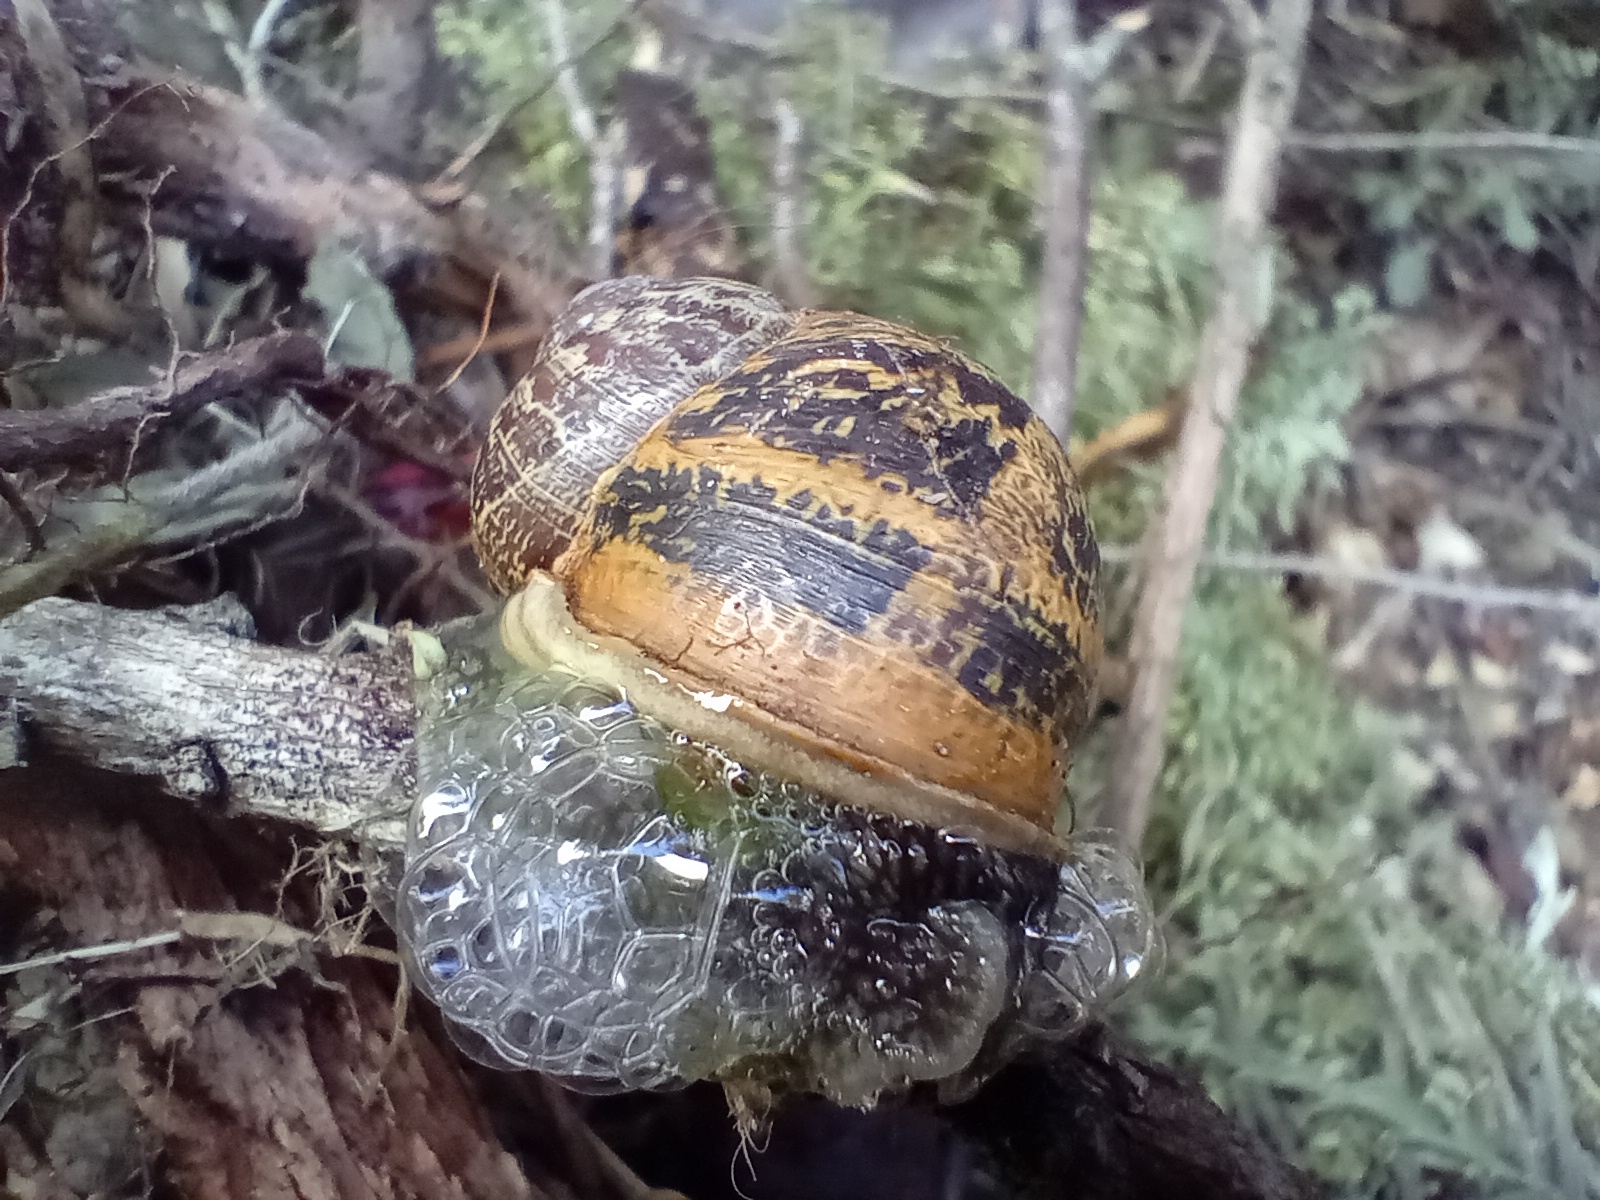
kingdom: Animalia
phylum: Mollusca
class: Gastropoda
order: Stylommatophora
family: Helicidae
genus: Cornu
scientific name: Cornu aspersum
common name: Brown garden snail
